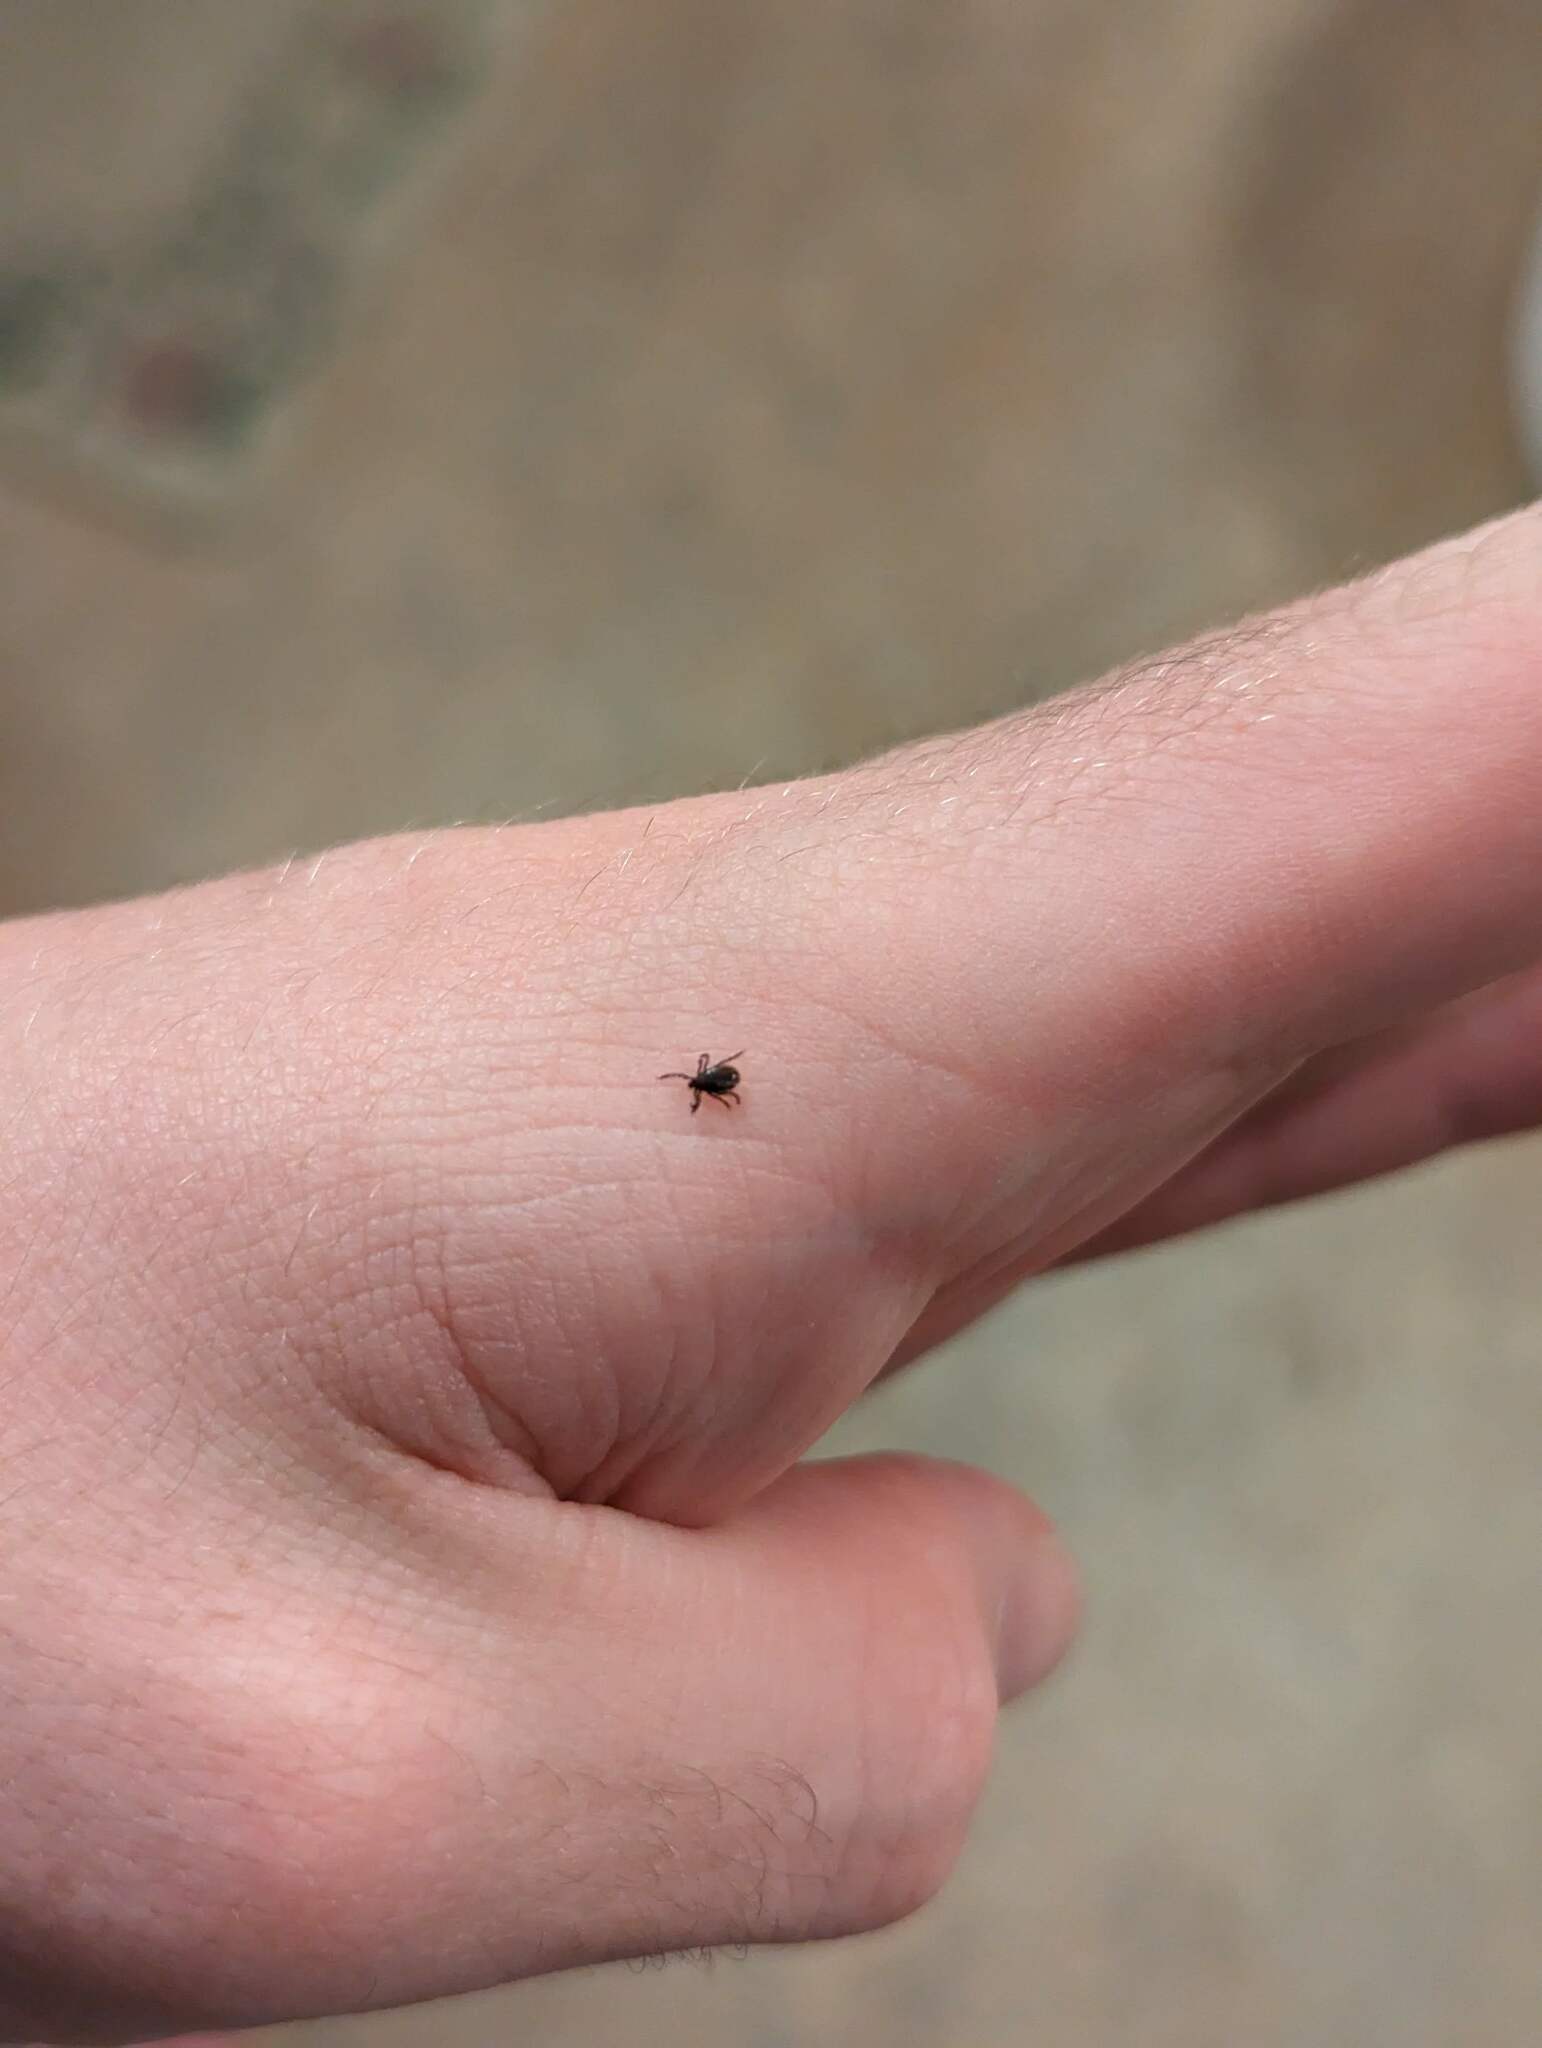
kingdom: Animalia
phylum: Arthropoda
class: Arachnida
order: Ixodida
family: Ixodidae
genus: Ixodes
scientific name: Ixodes scapularis
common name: Black legged tick
